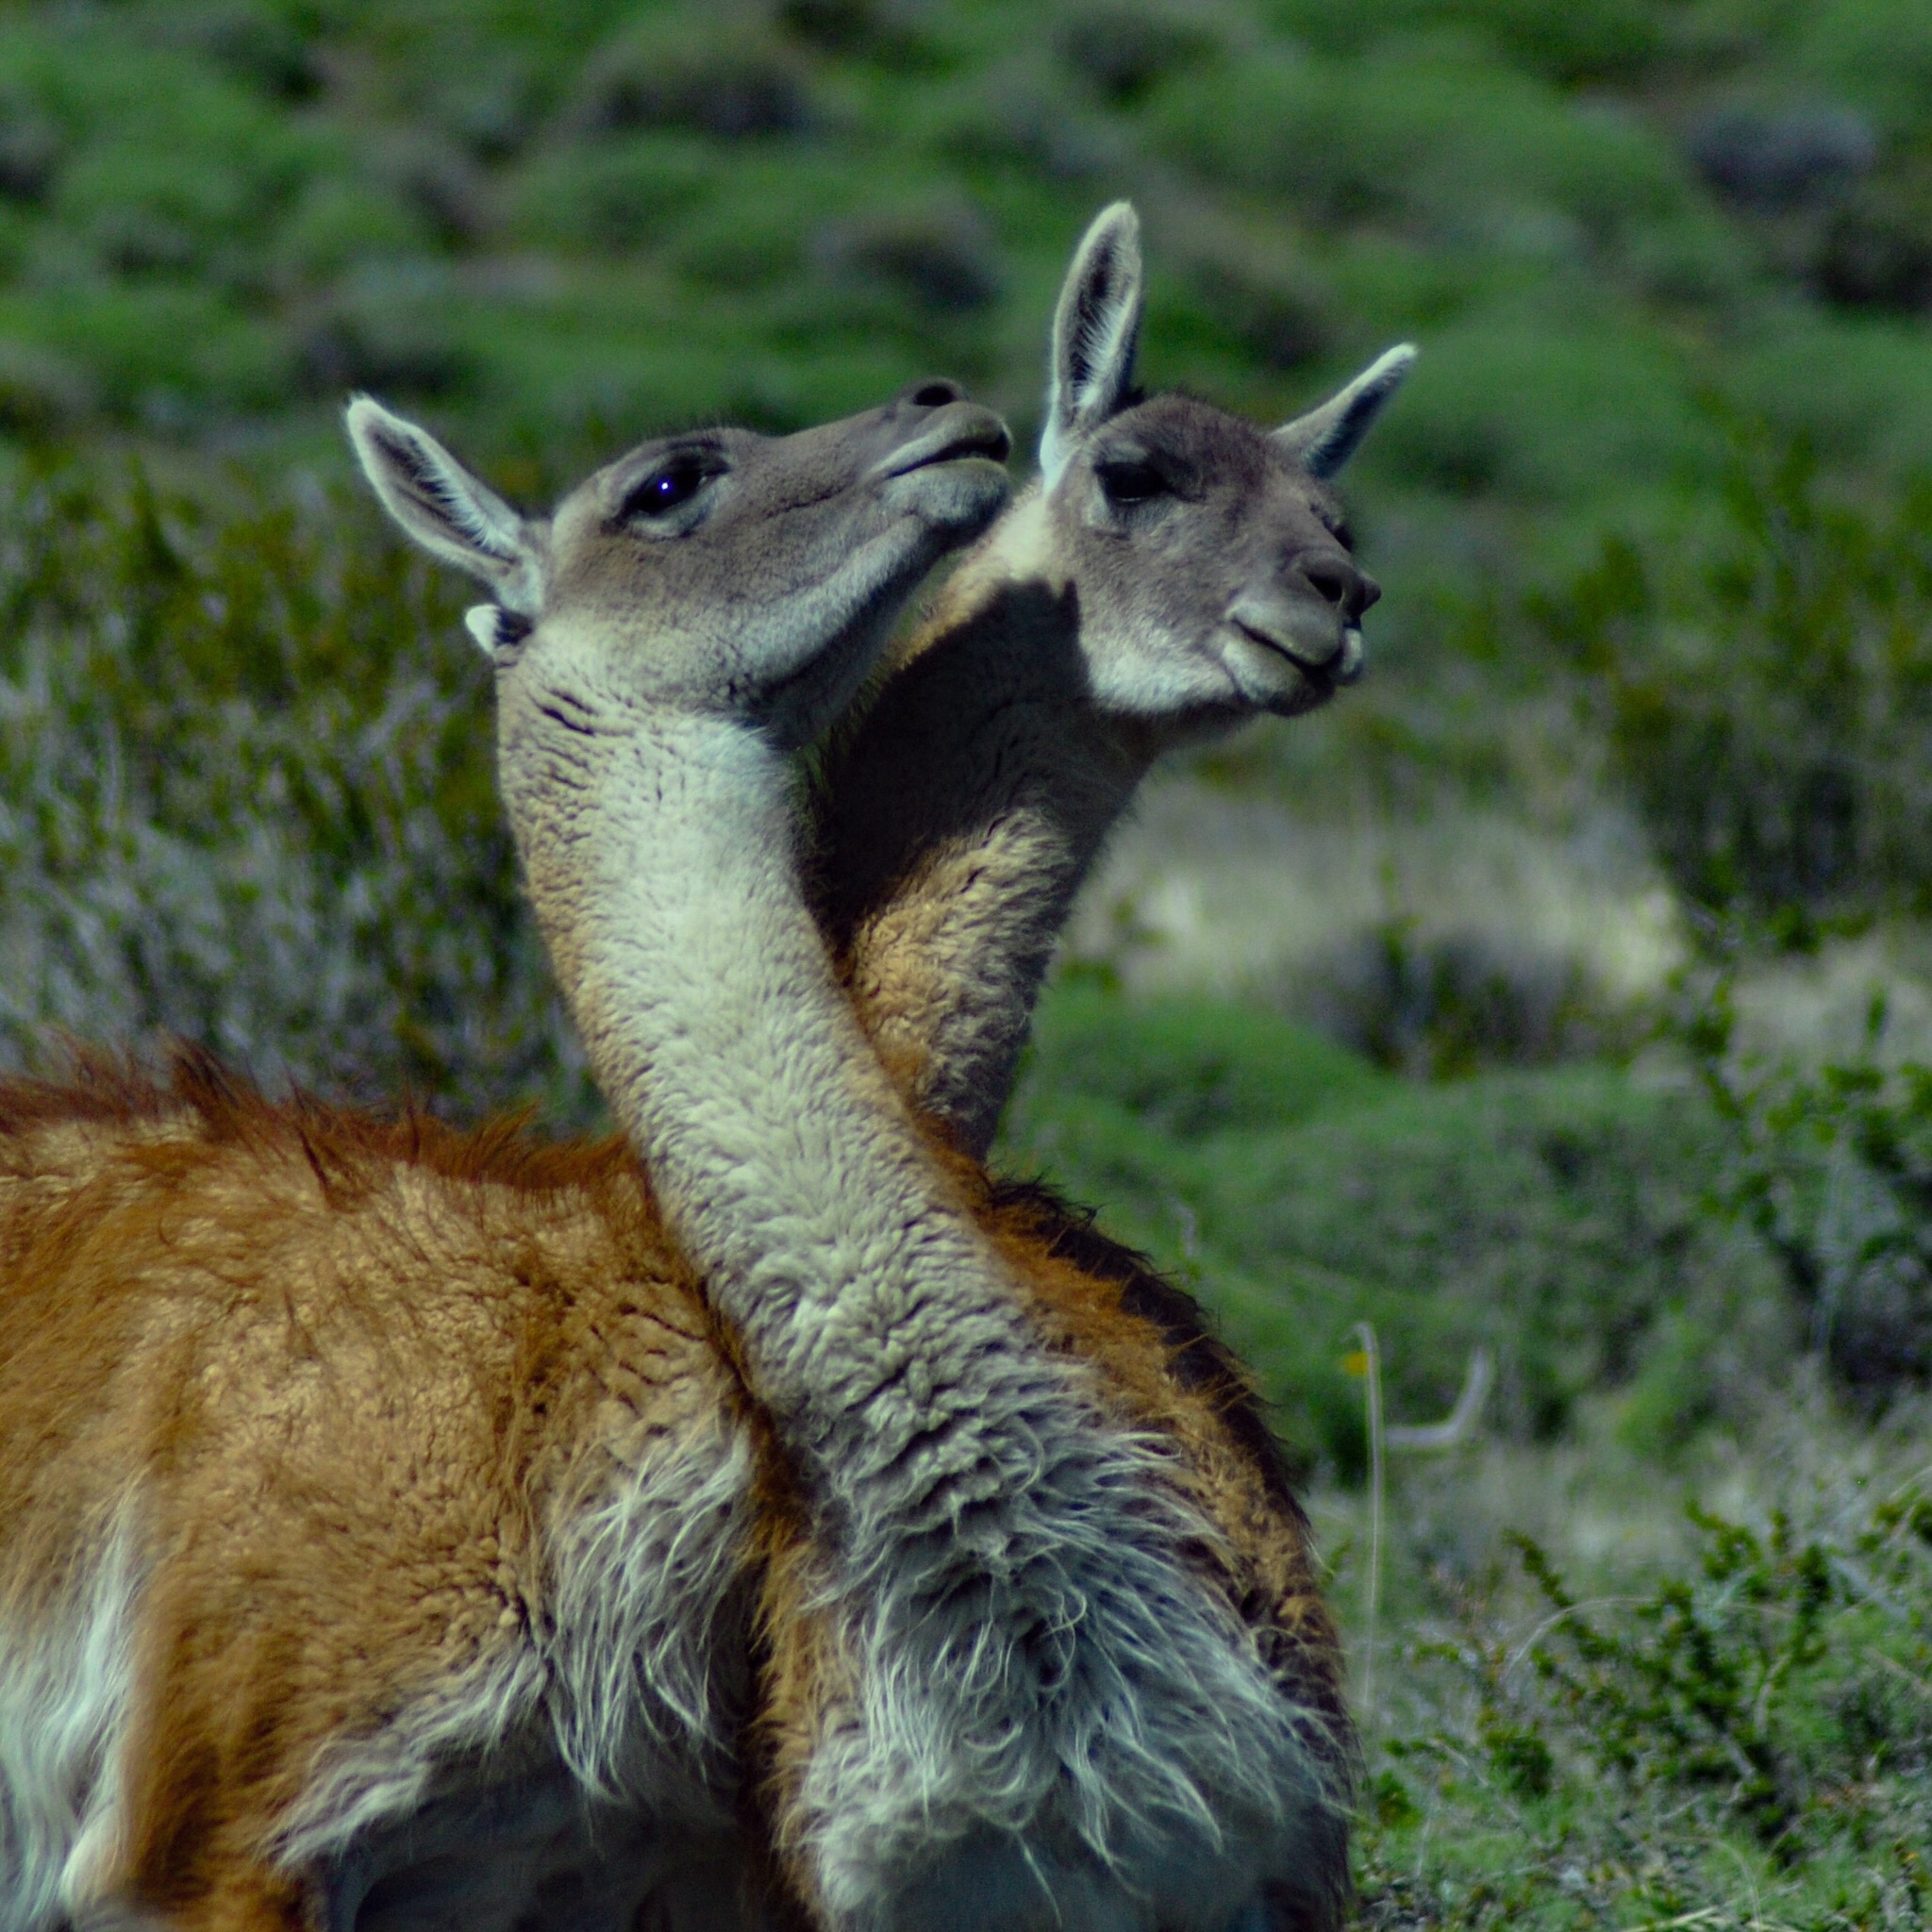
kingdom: Animalia
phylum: Chordata
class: Mammalia
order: Artiodactyla
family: Camelidae
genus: Lama
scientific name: Lama glama
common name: Llama
